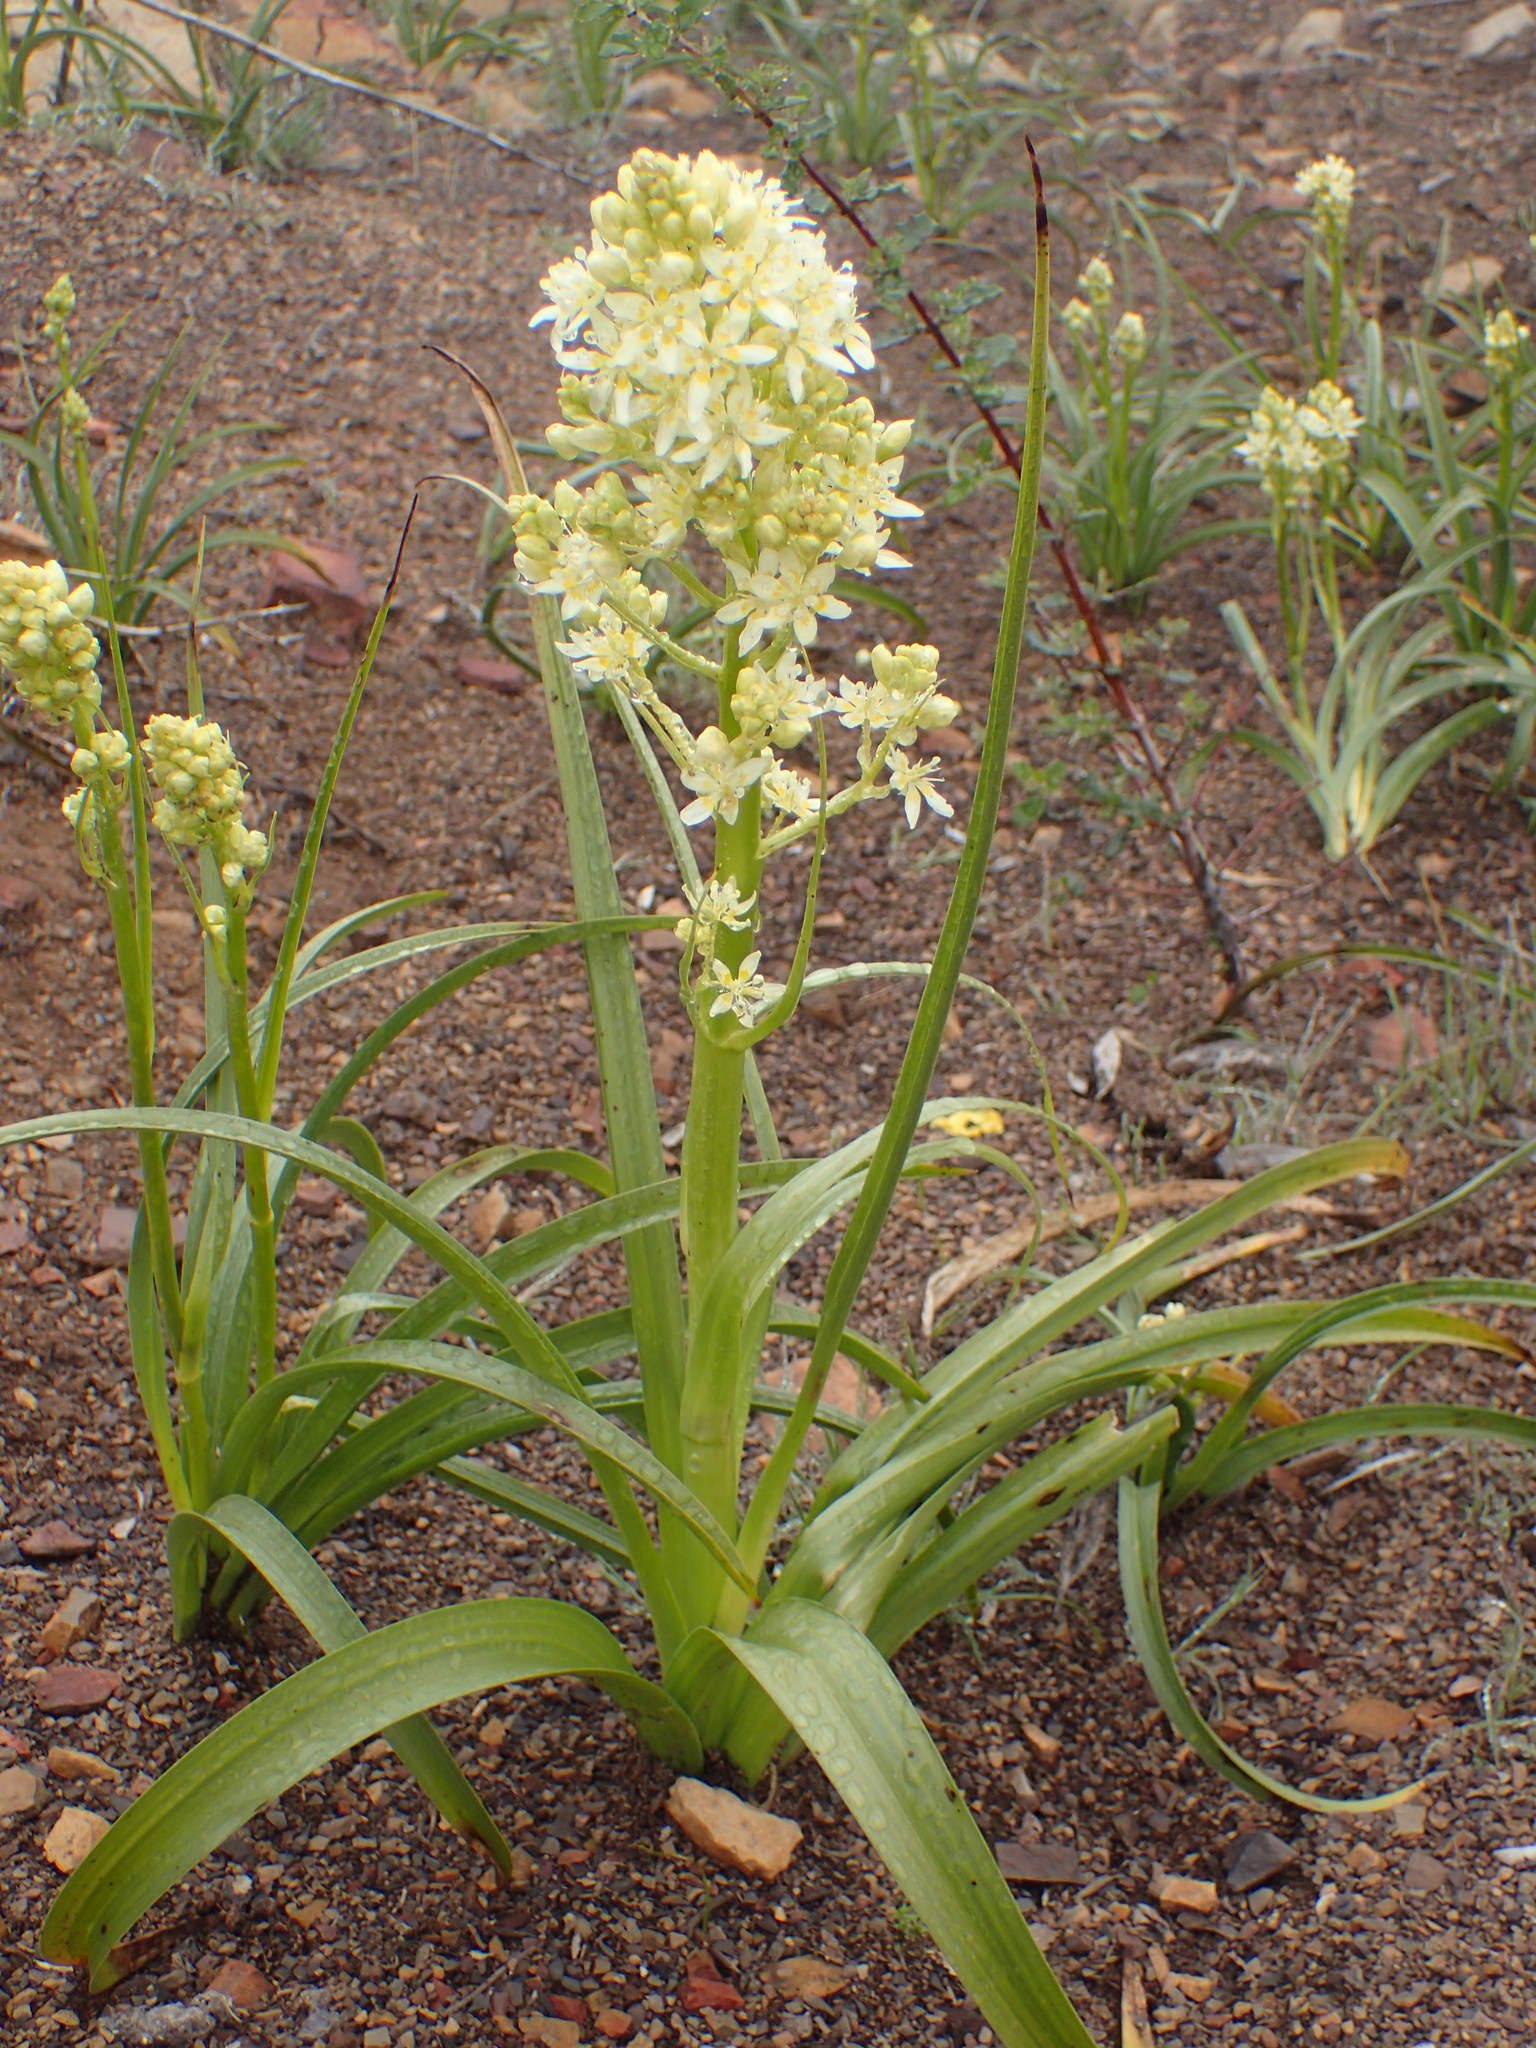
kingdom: Plantae
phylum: Tracheophyta
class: Liliopsida
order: Liliales
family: Melanthiaceae
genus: Toxicoscordion
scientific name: Toxicoscordion fremontii
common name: Fremont's death camas
